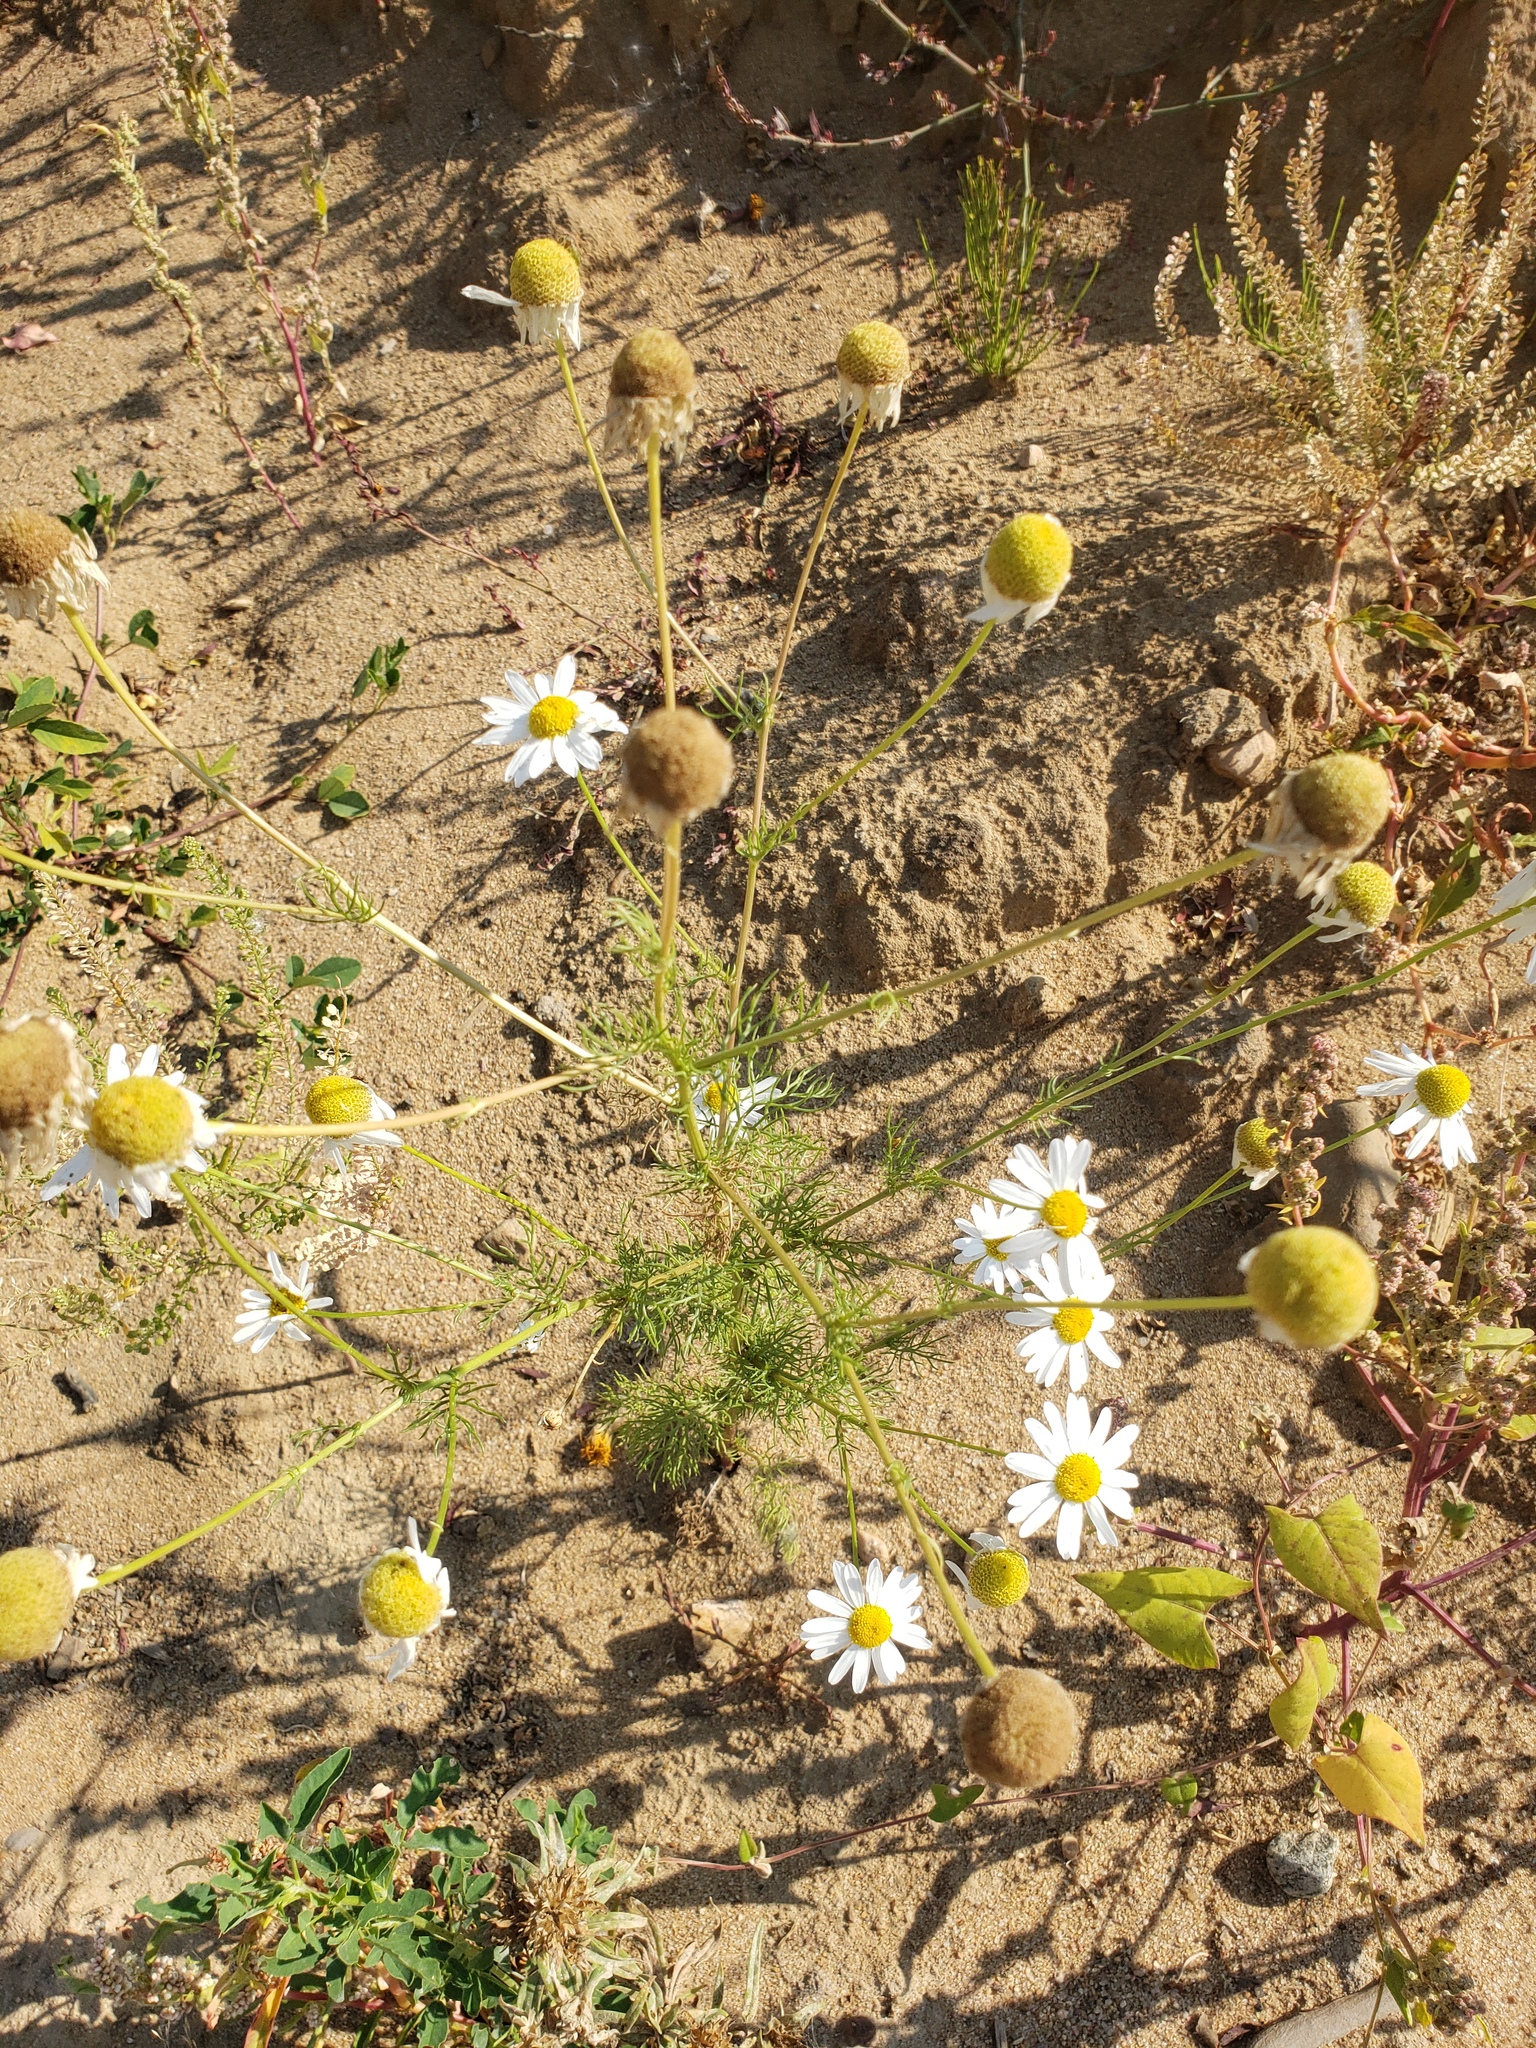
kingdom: Plantae
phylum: Tracheophyta
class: Magnoliopsida
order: Asterales
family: Asteraceae
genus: Tripleurospermum
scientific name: Tripleurospermum inodorum
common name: Scentless mayweed
